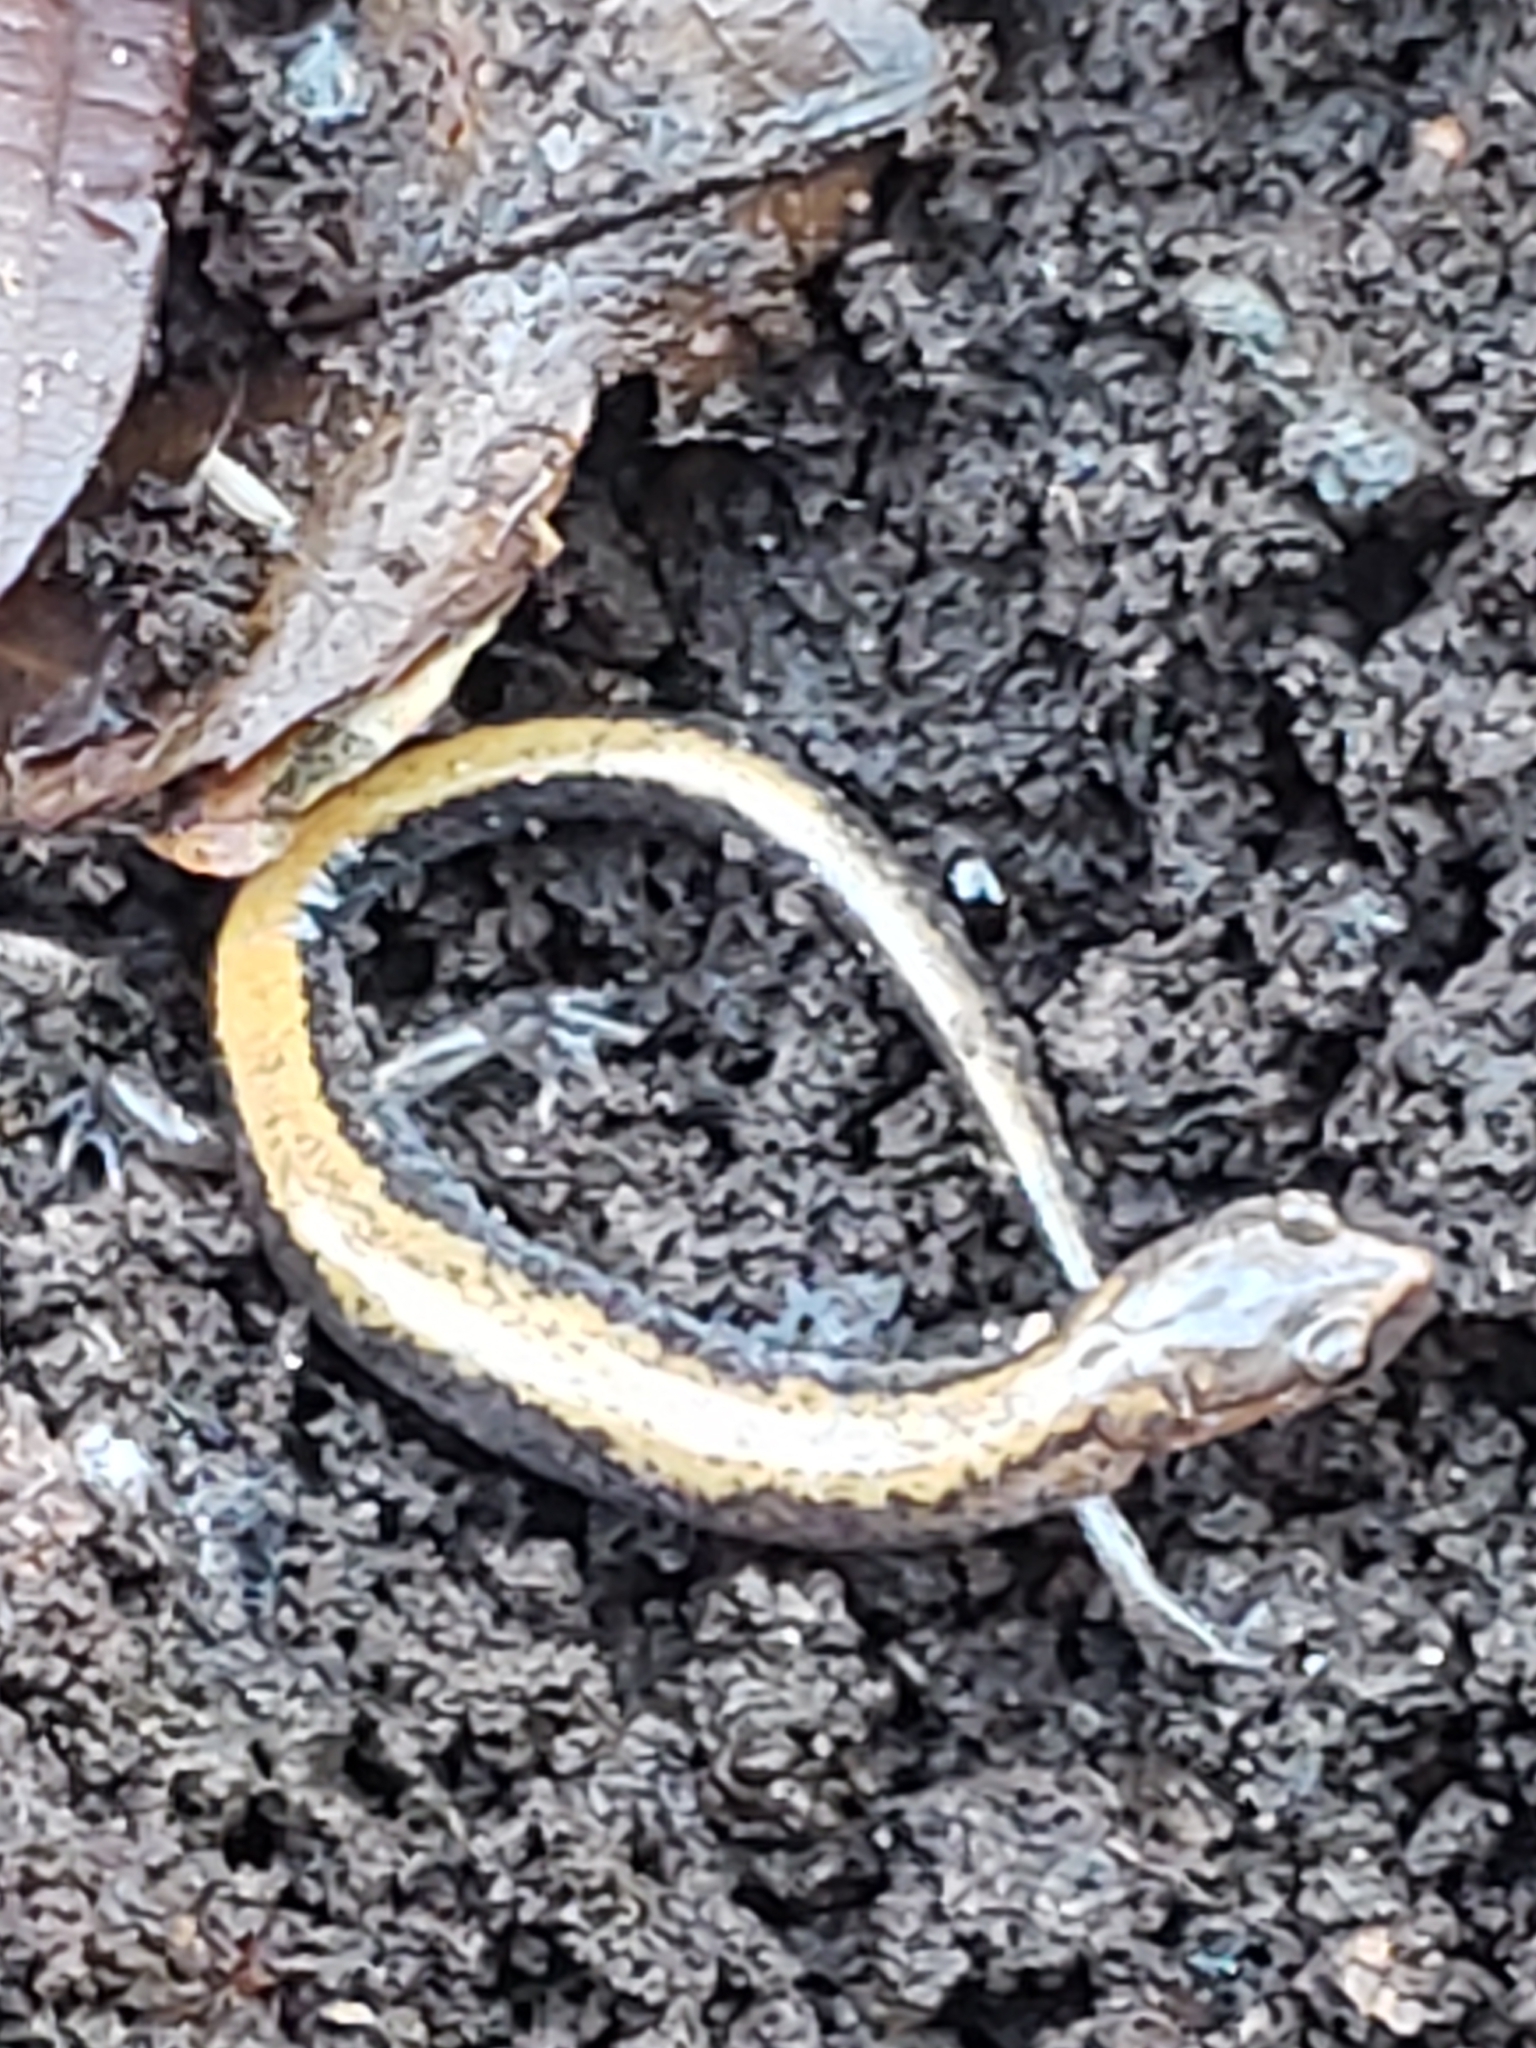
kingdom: Animalia
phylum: Chordata
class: Amphibia
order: Caudata
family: Plethodontidae
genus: Plethodon
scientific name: Plethodon cinereus
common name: Redback salamander
